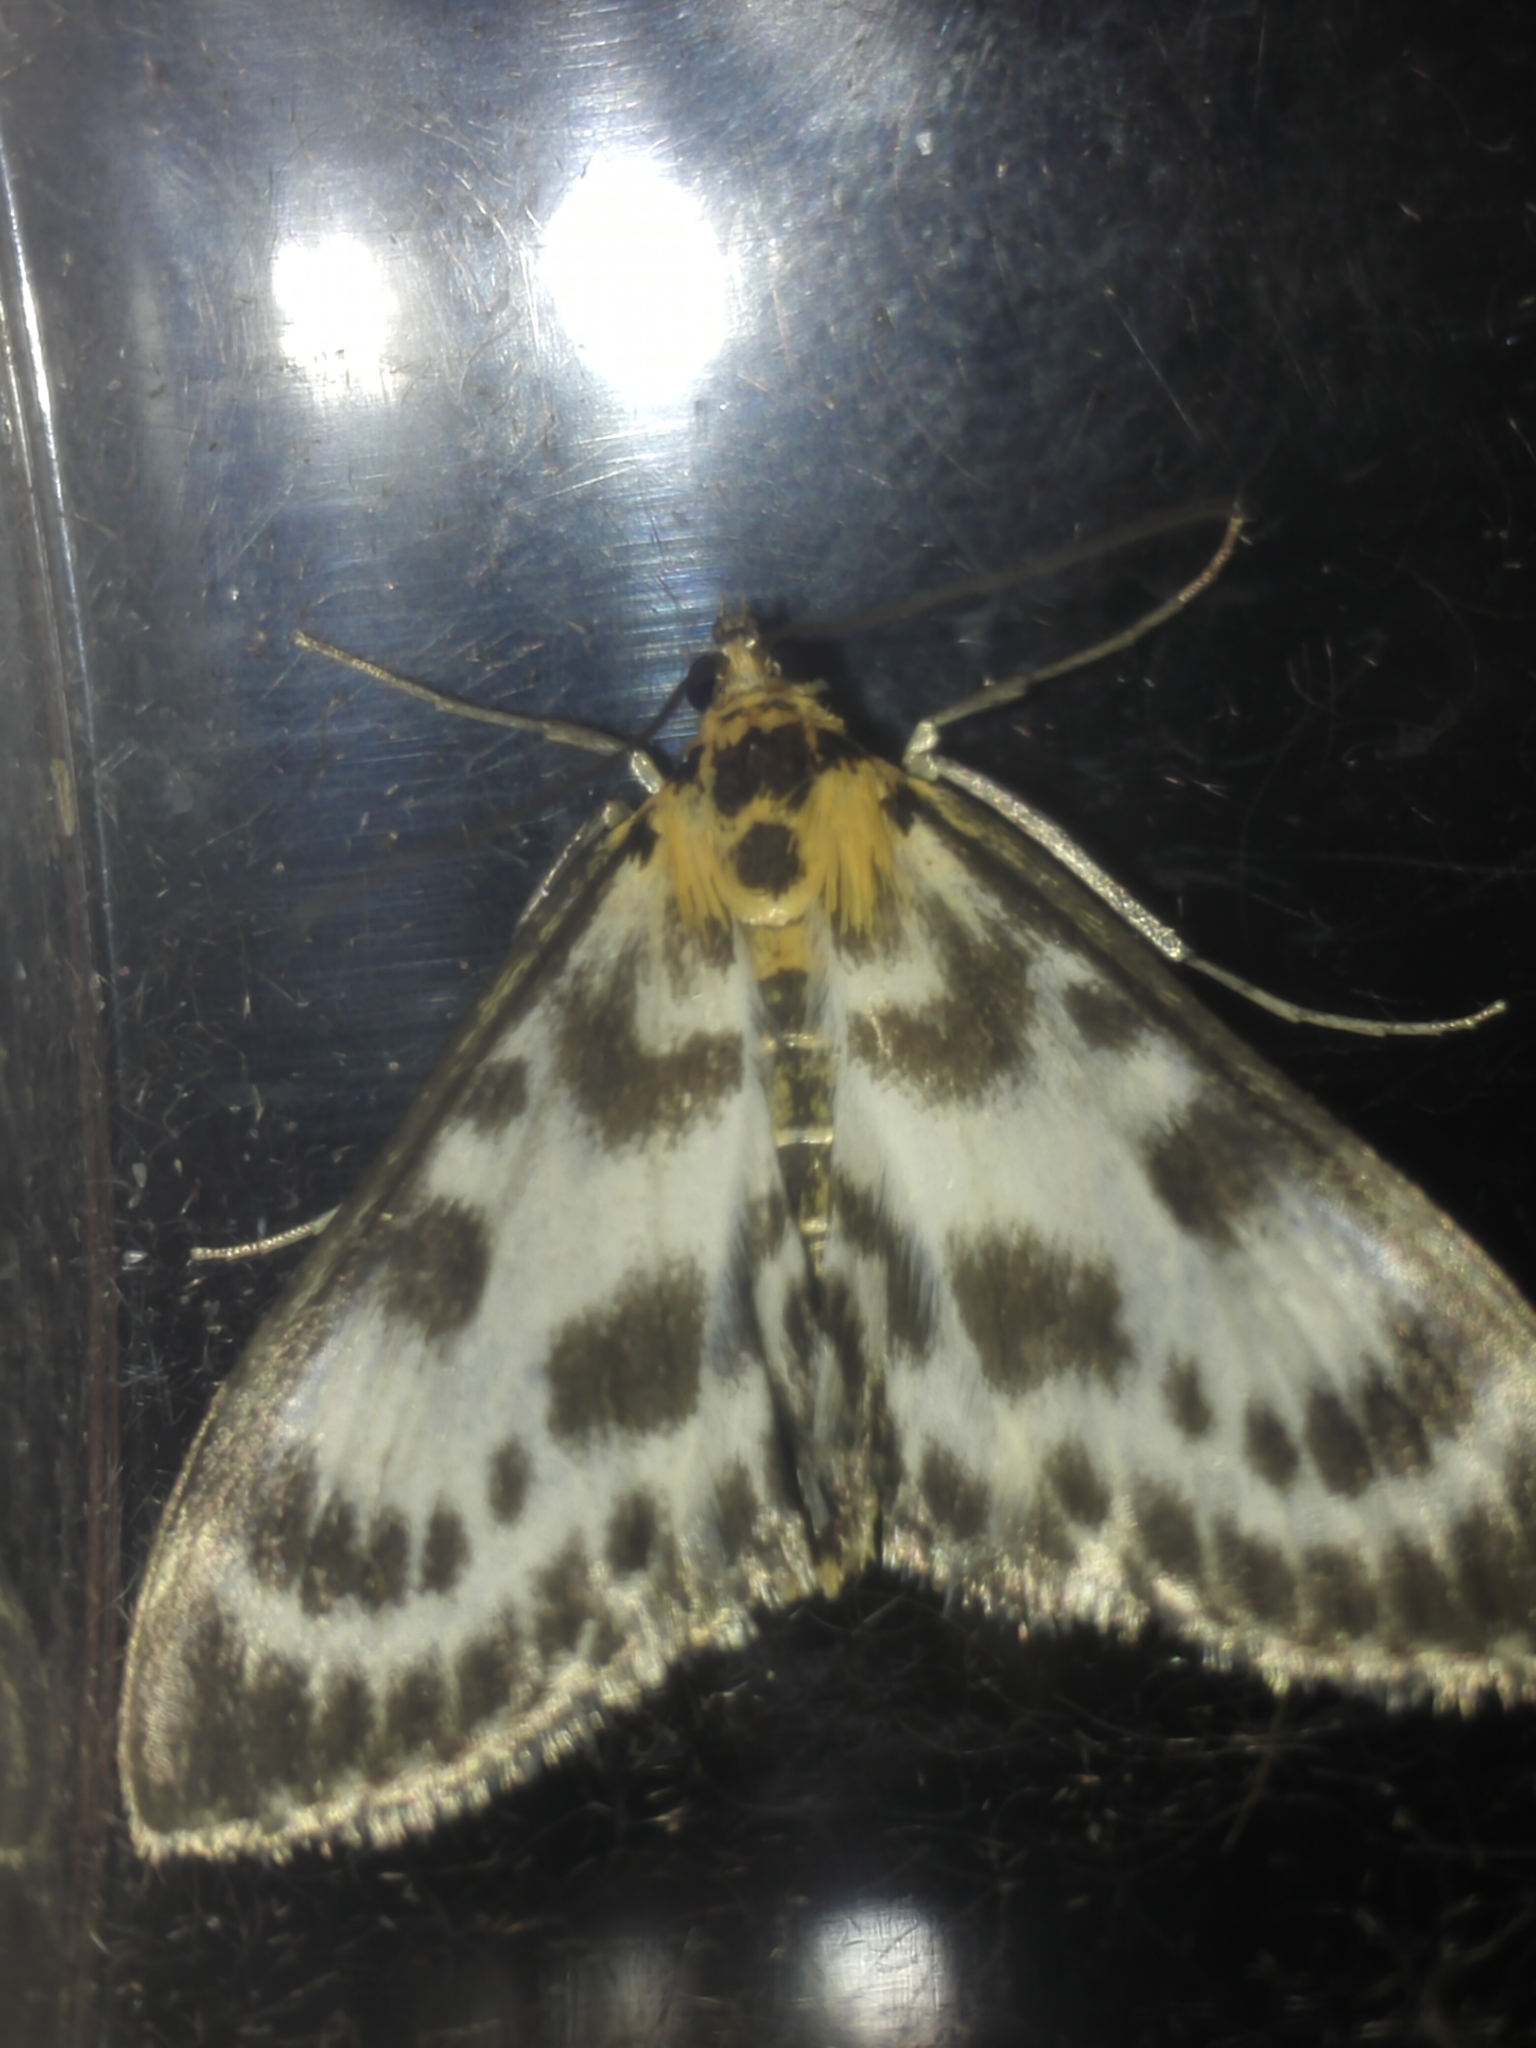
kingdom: Animalia
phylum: Arthropoda
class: Insecta
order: Lepidoptera
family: Crambidae
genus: Anania
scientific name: Anania hortulata
